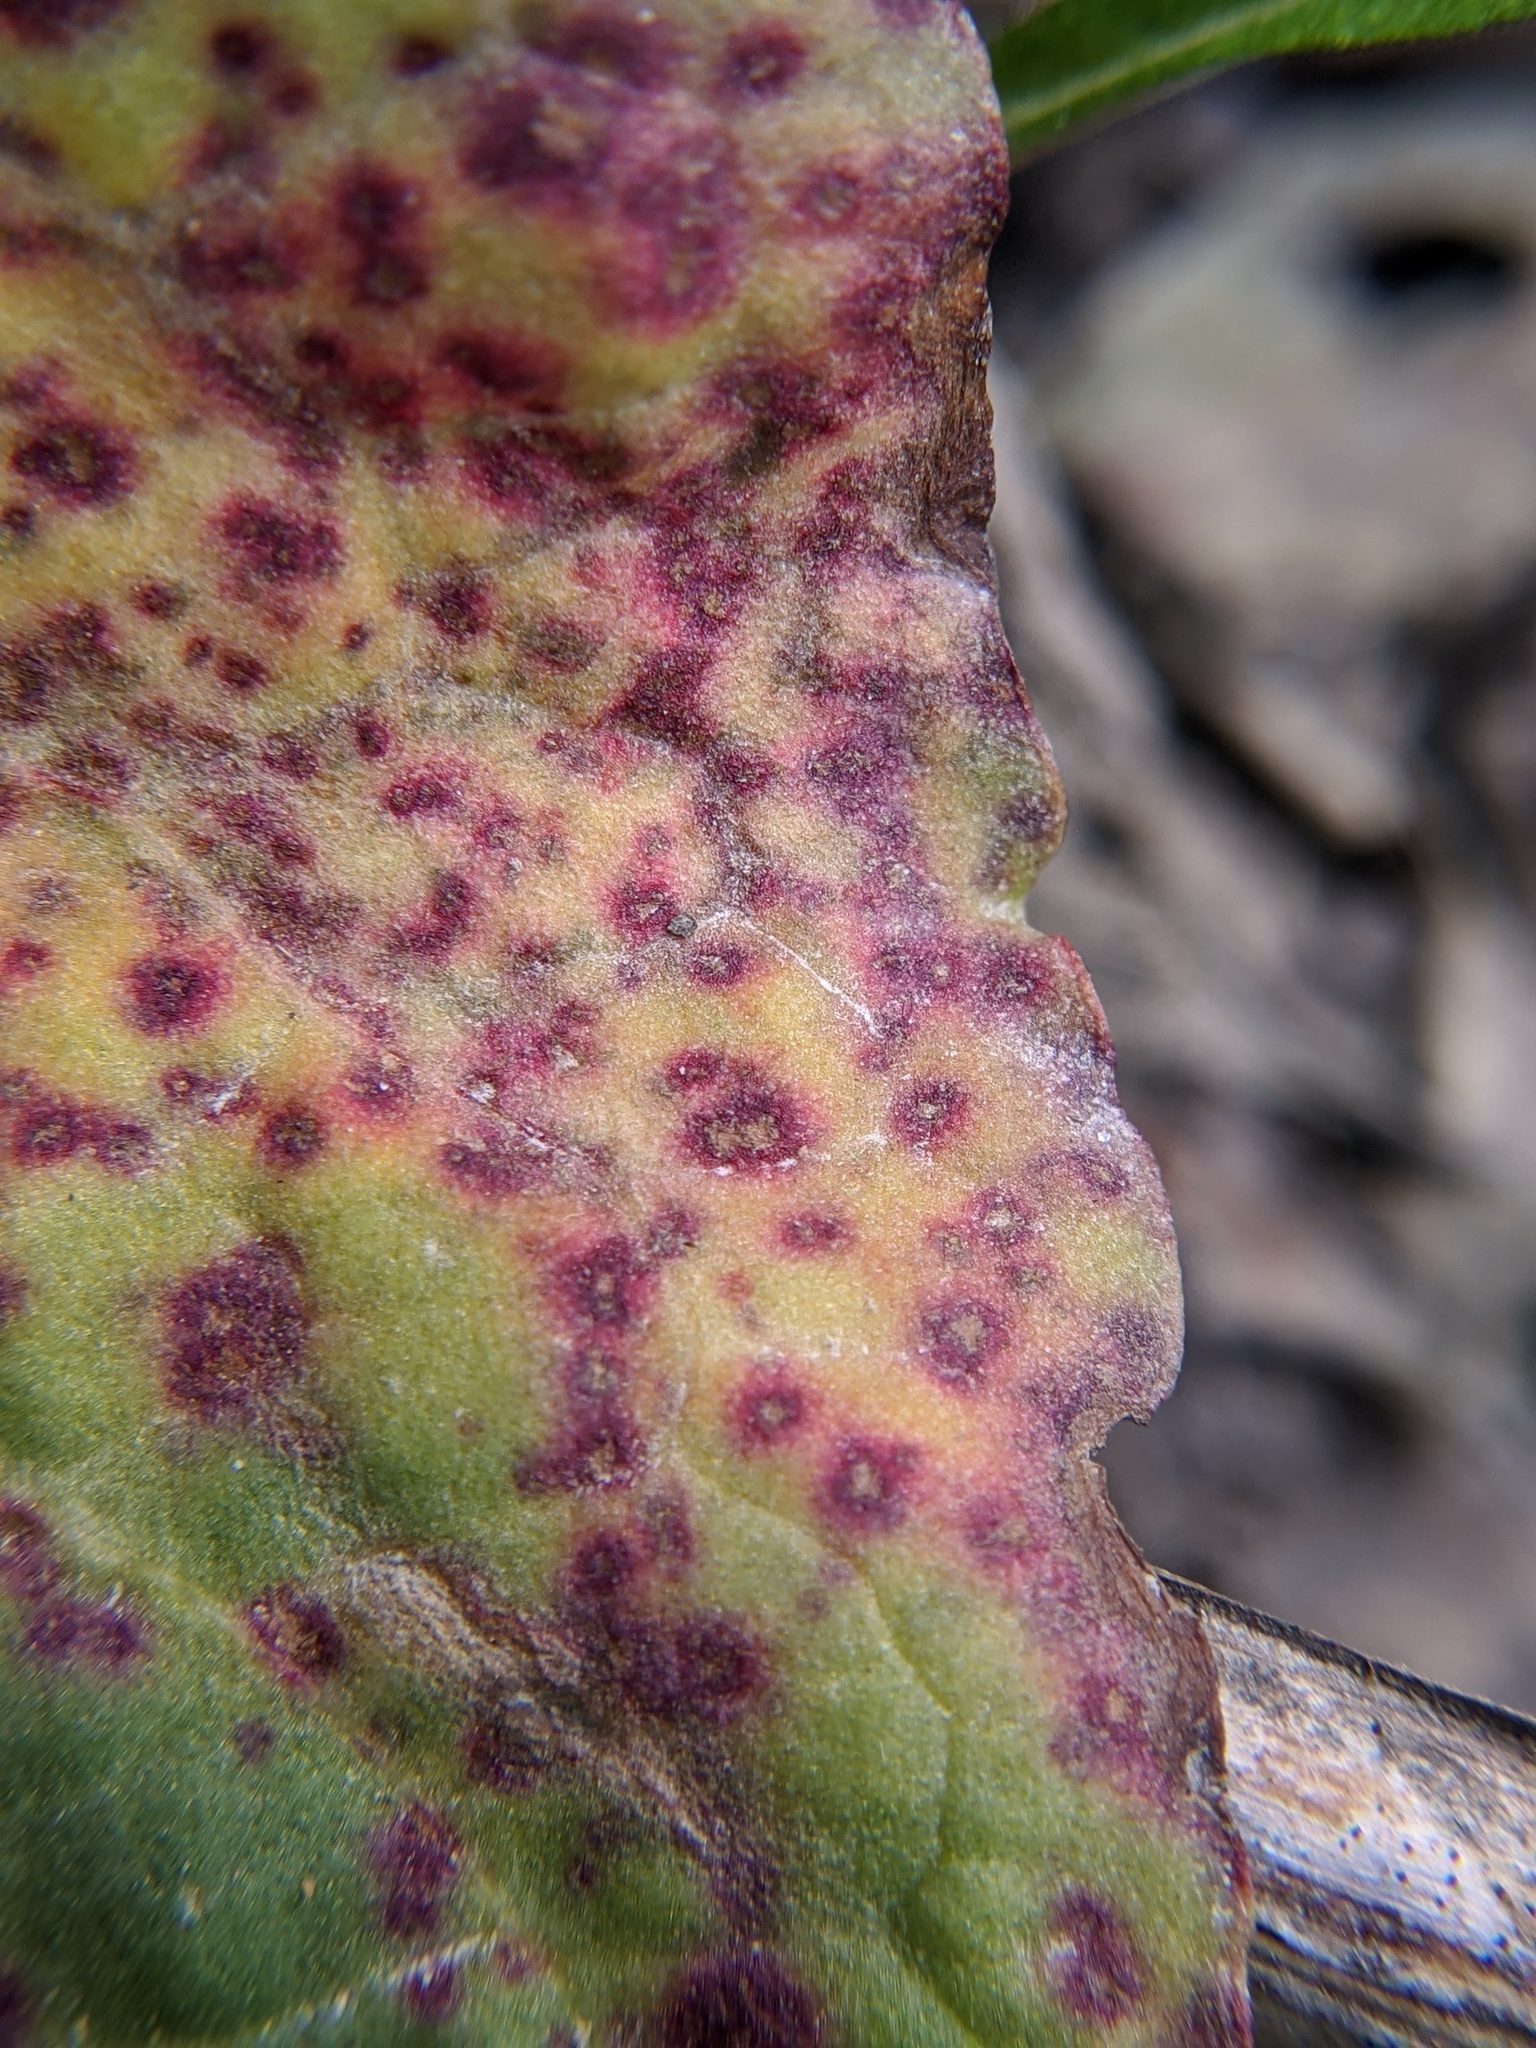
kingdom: Fungi
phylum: Ascomycota
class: Dothideomycetes
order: Mycosphaerellales
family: Mycosphaerellaceae
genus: Ramularia
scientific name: Ramularia rubella
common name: Red dock spot
